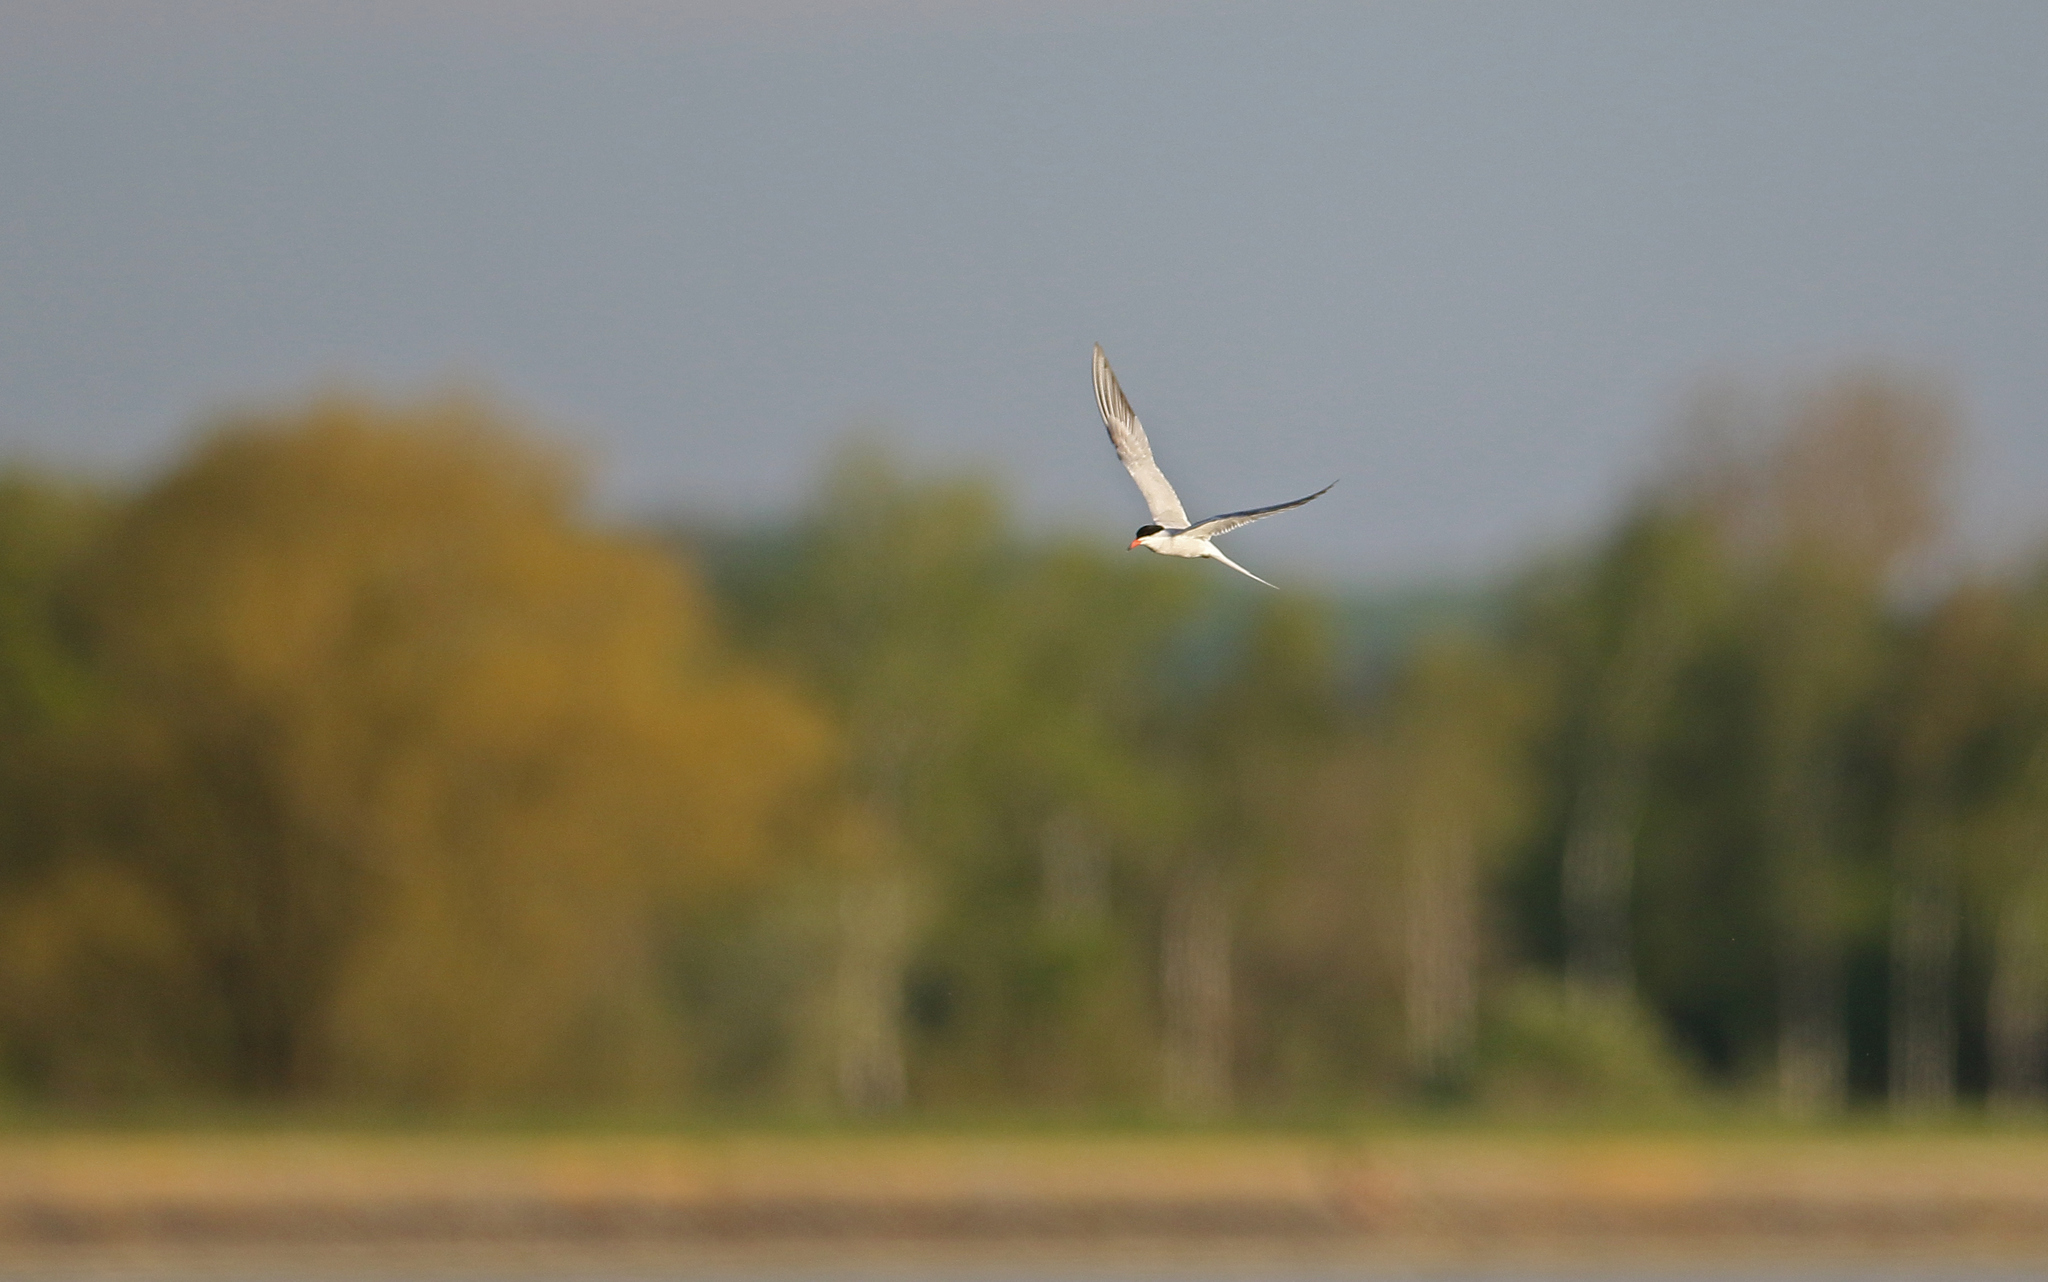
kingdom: Animalia
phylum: Chordata
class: Aves
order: Charadriiformes
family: Laridae
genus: Sterna
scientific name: Sterna hirundo
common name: Common tern
